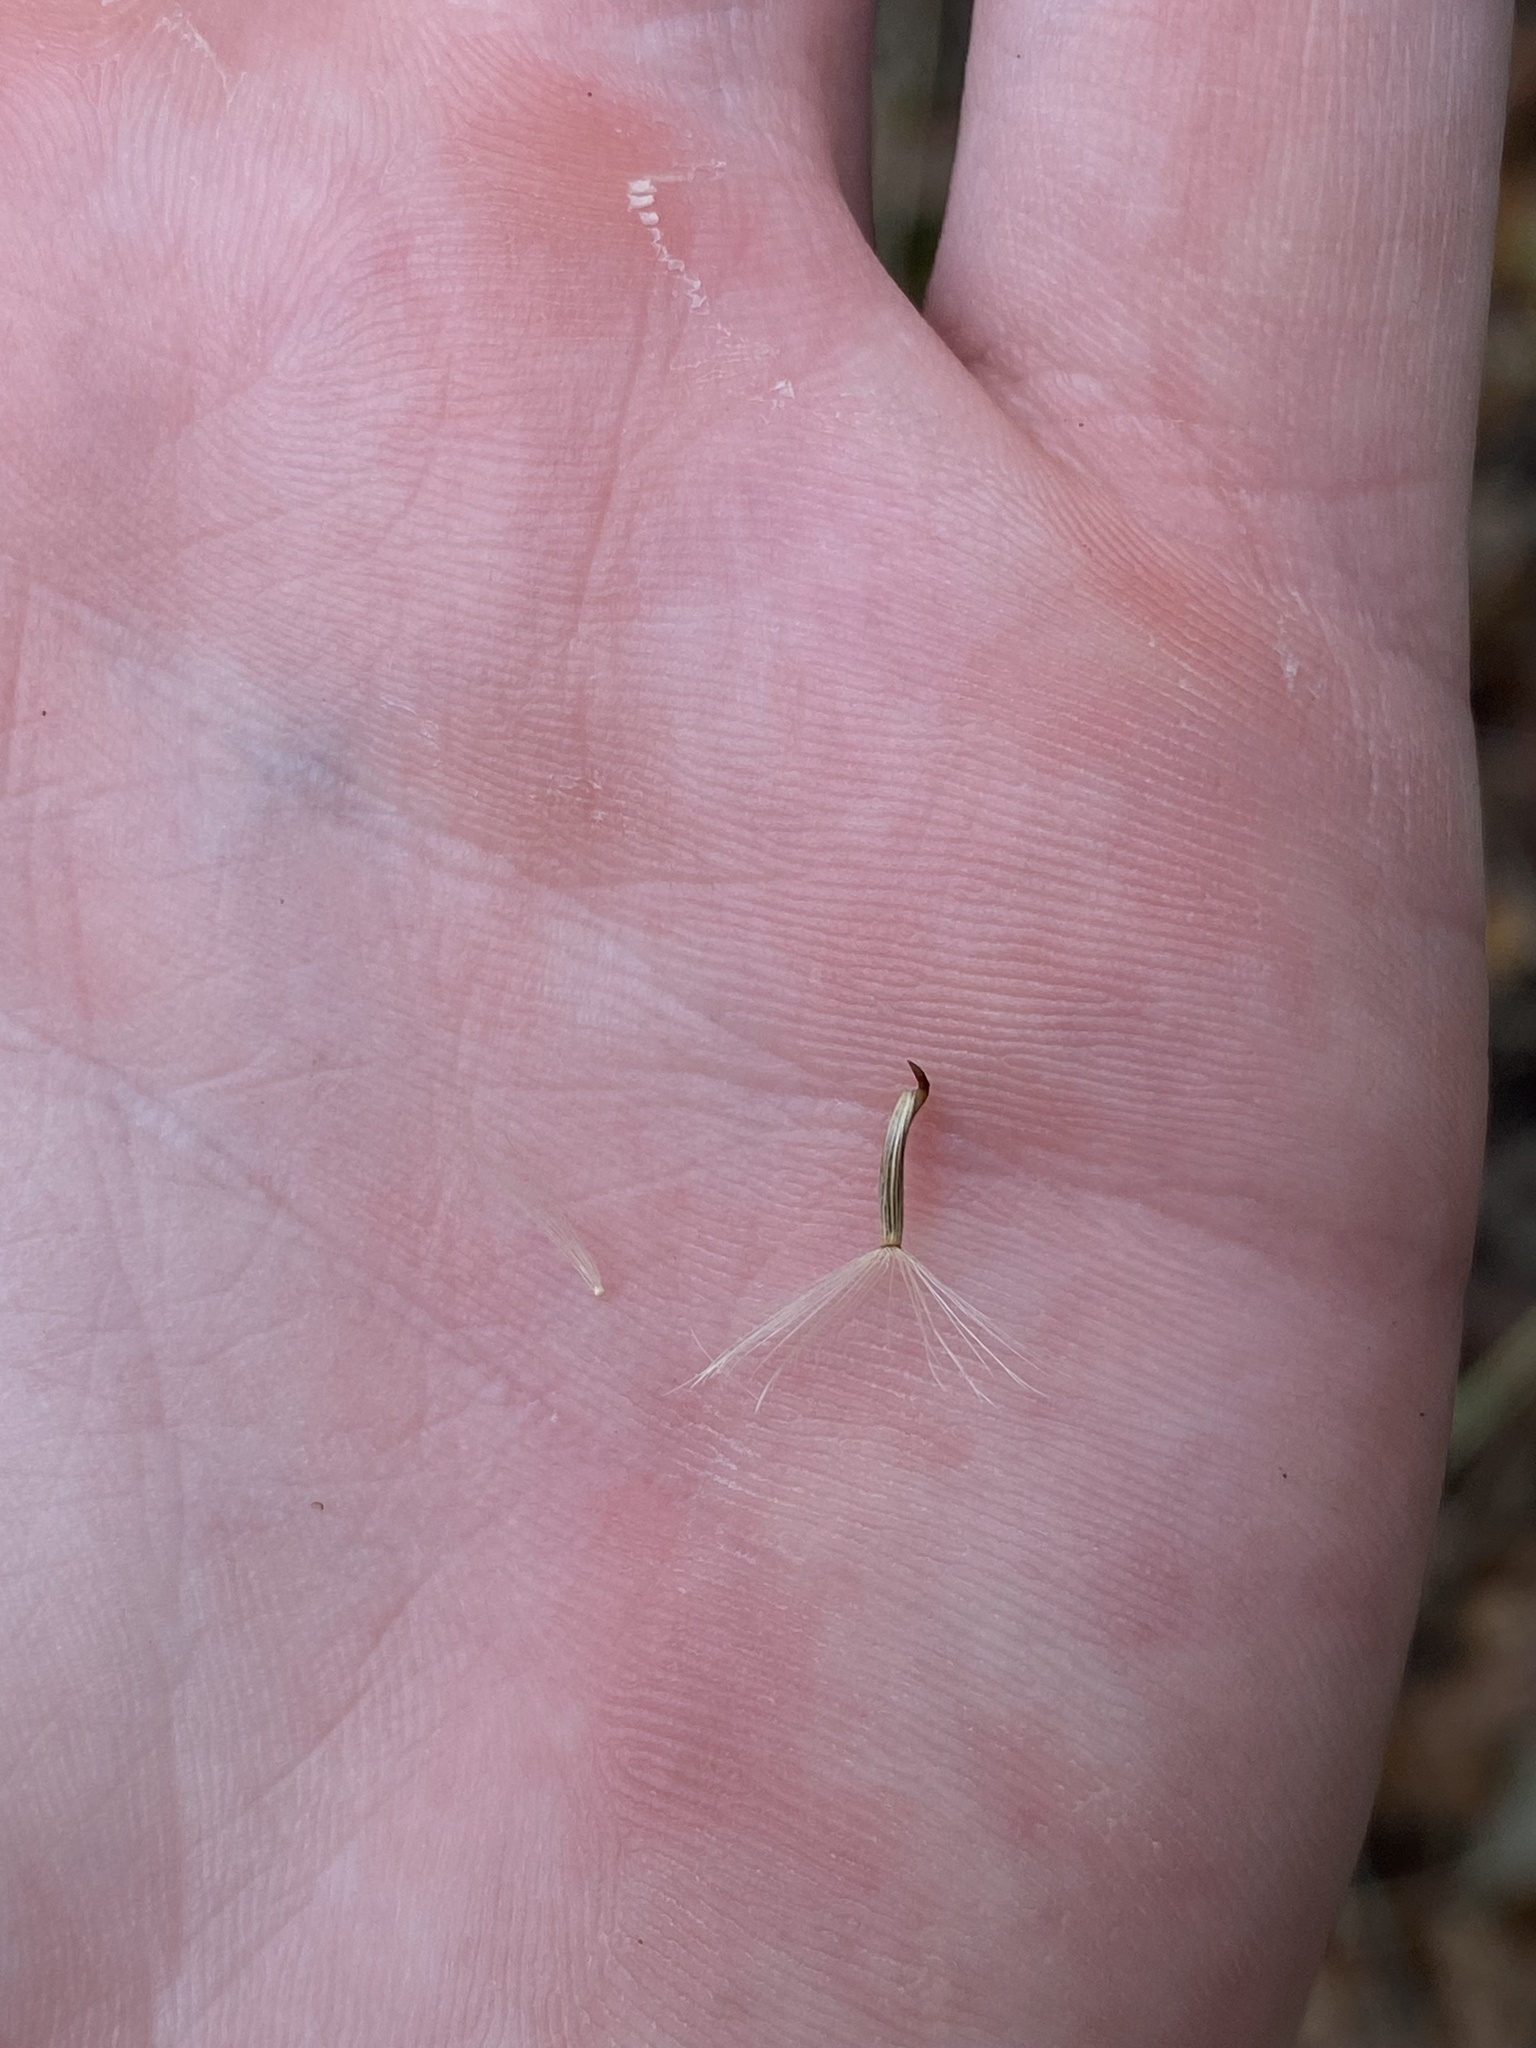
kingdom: Plantae
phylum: Tracheophyta
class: Magnoliopsida
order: Asterales
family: Asteraceae
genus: Hazardia
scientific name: Hazardia squarrosa
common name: Saw-tooth goldenbush
